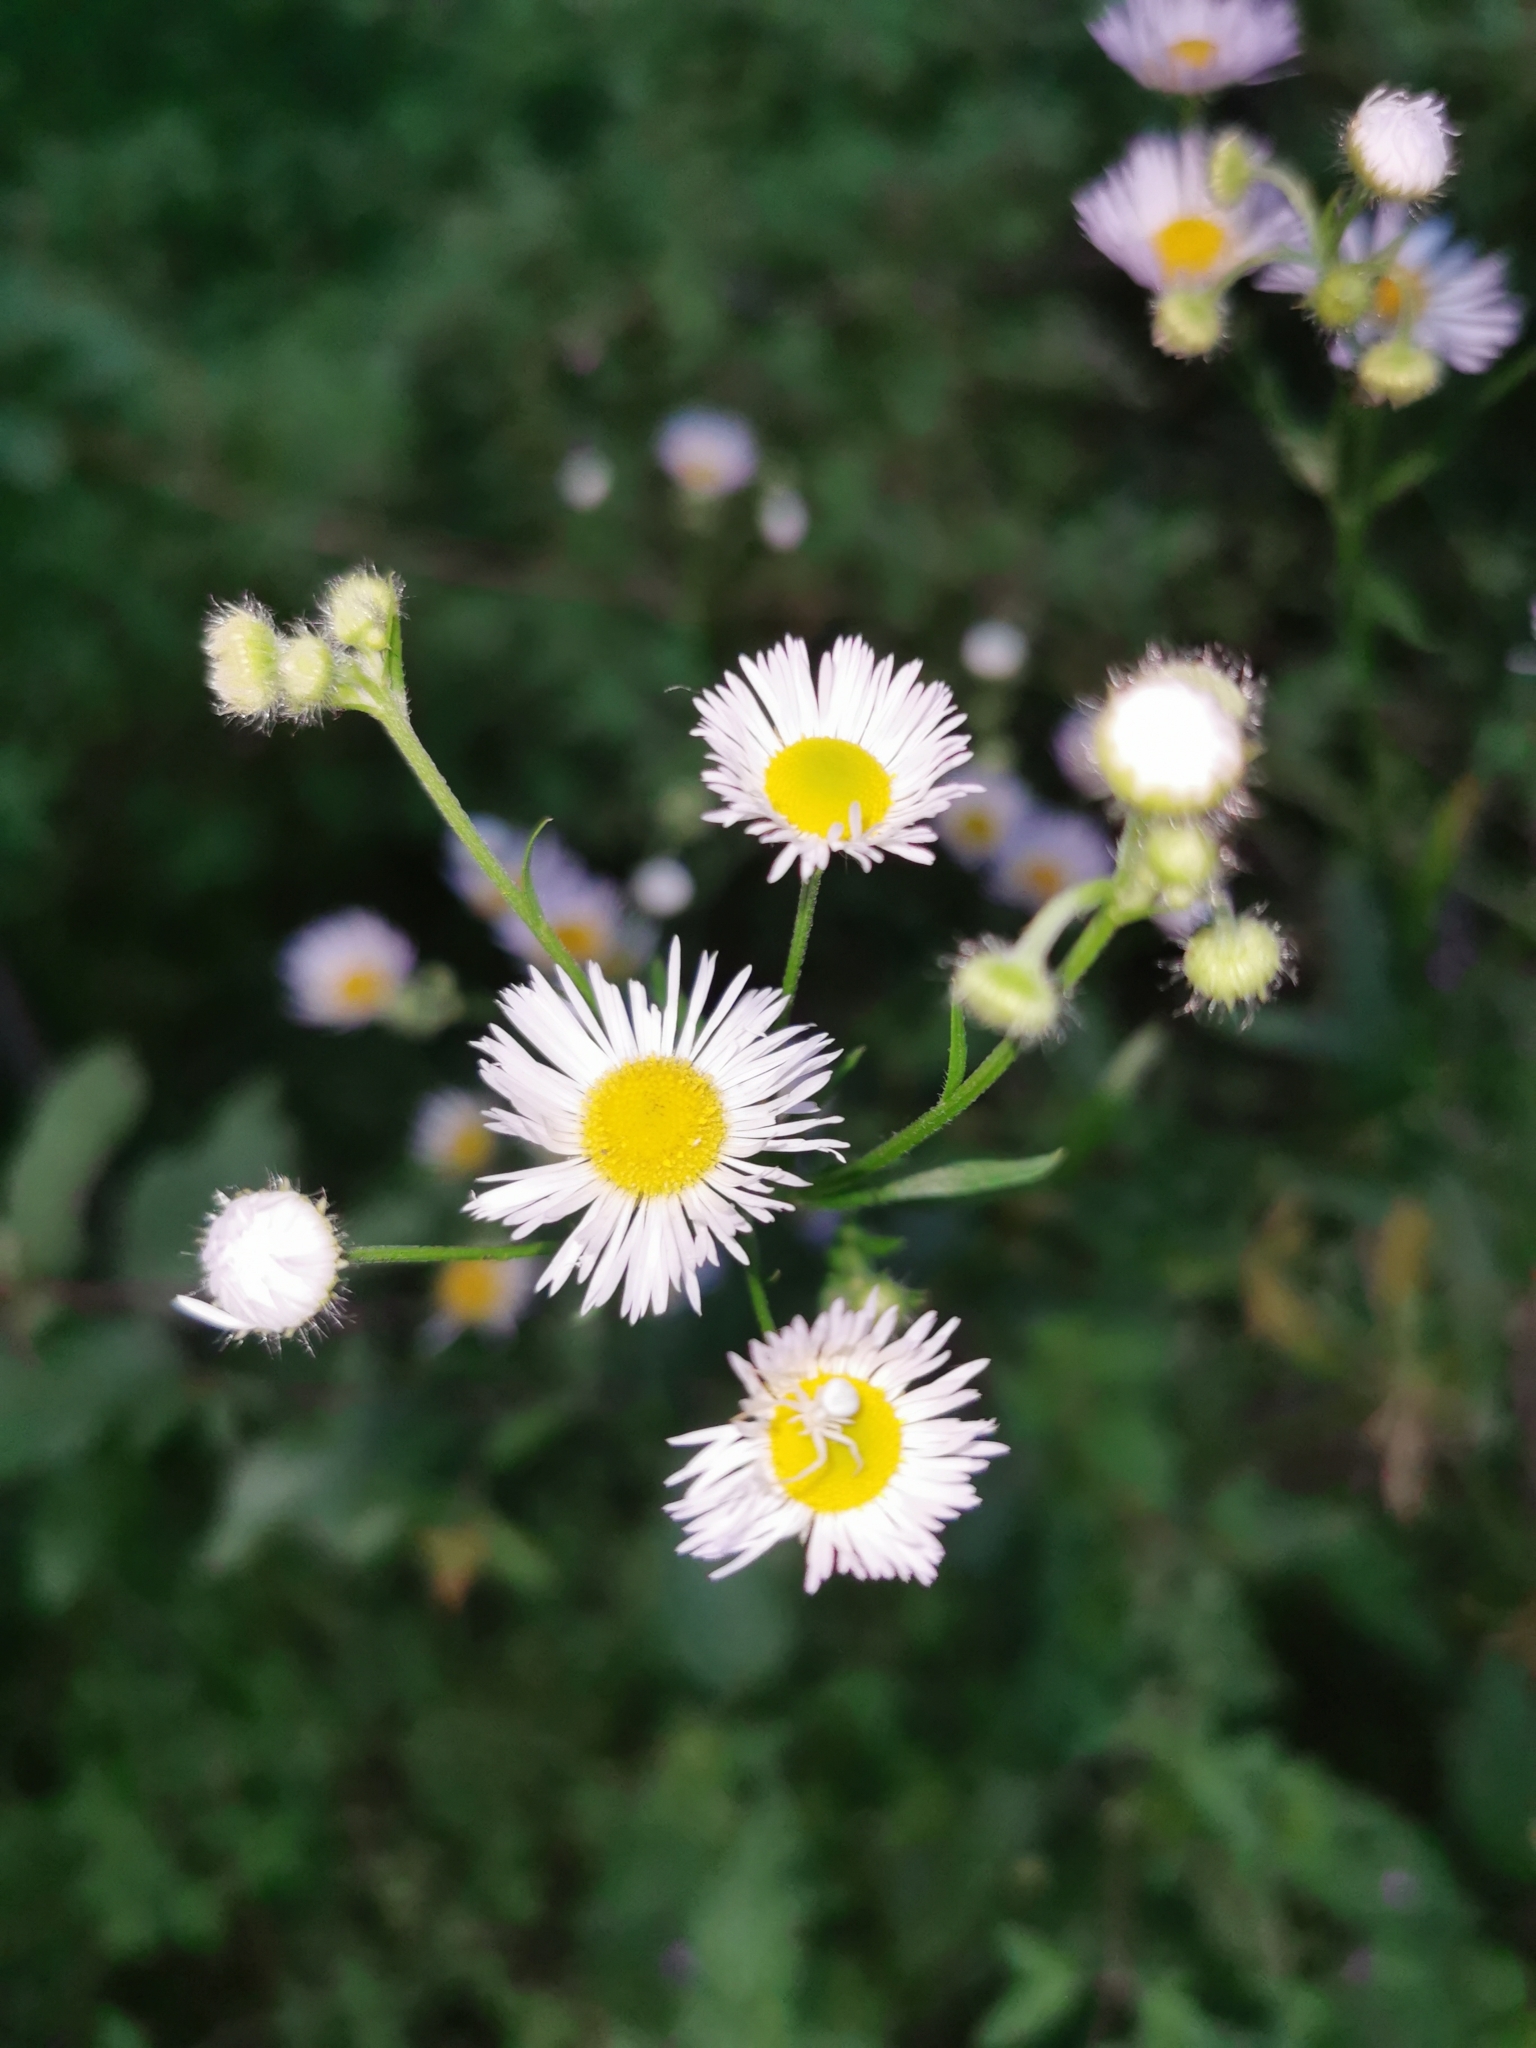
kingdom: Plantae
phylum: Tracheophyta
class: Magnoliopsida
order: Asterales
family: Asteraceae
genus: Erigeron
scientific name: Erigeron annuus
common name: Tall fleabane
